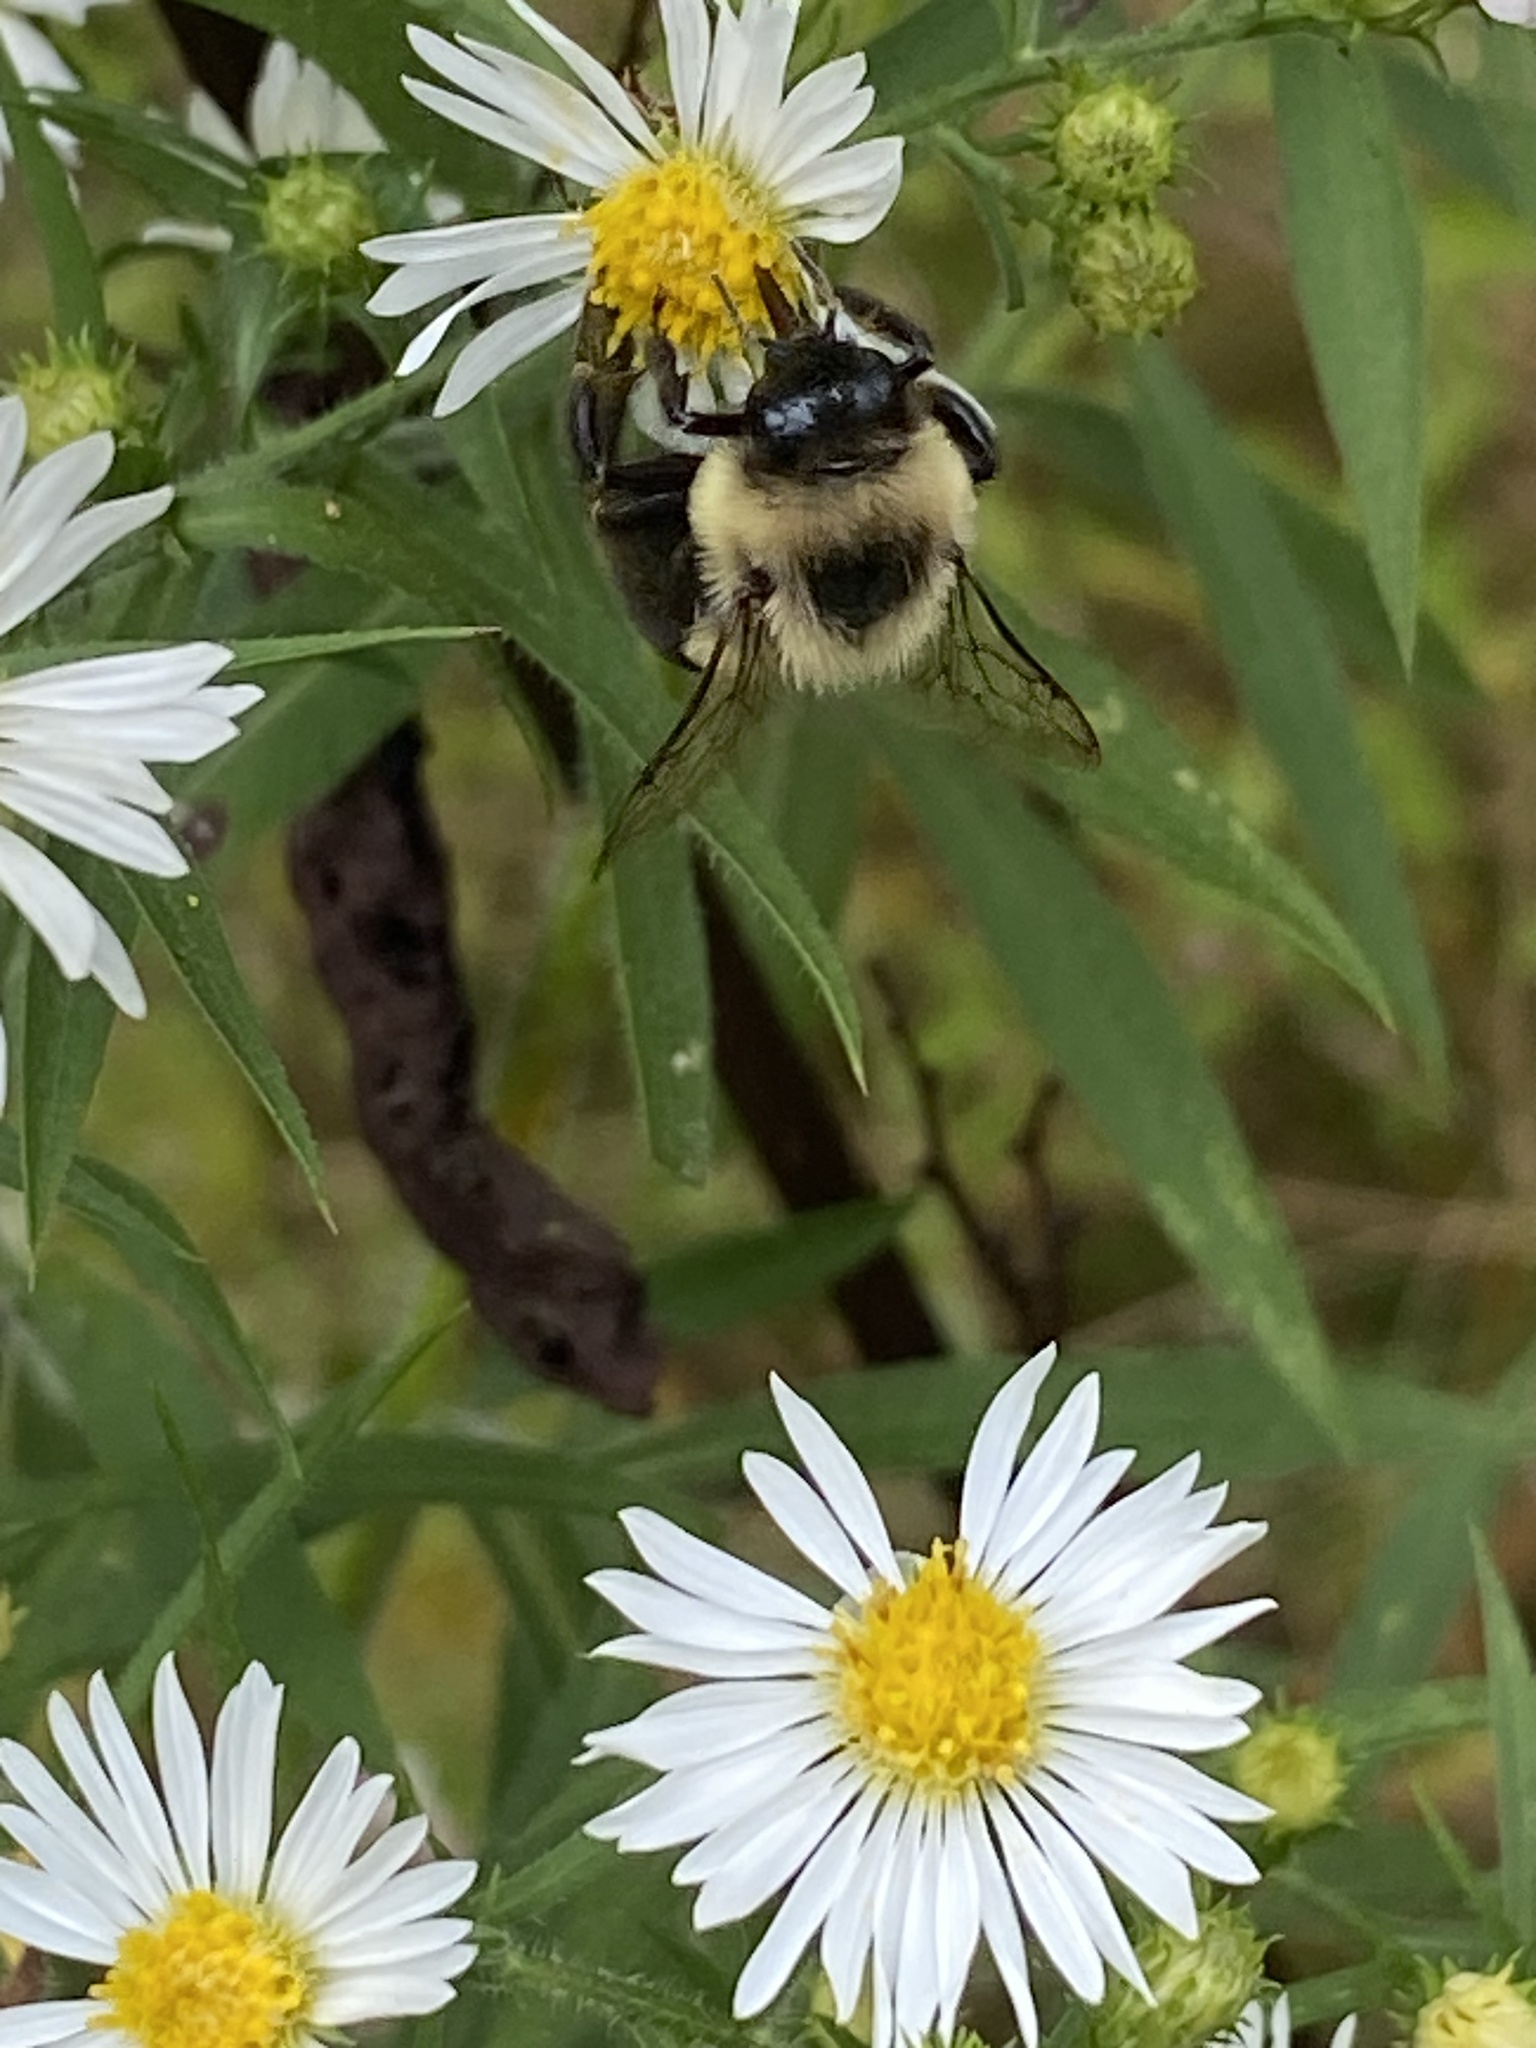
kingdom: Animalia
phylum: Arthropoda
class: Insecta
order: Hymenoptera
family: Apidae
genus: Bombus
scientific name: Bombus impatiens
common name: Common eastern bumble bee
